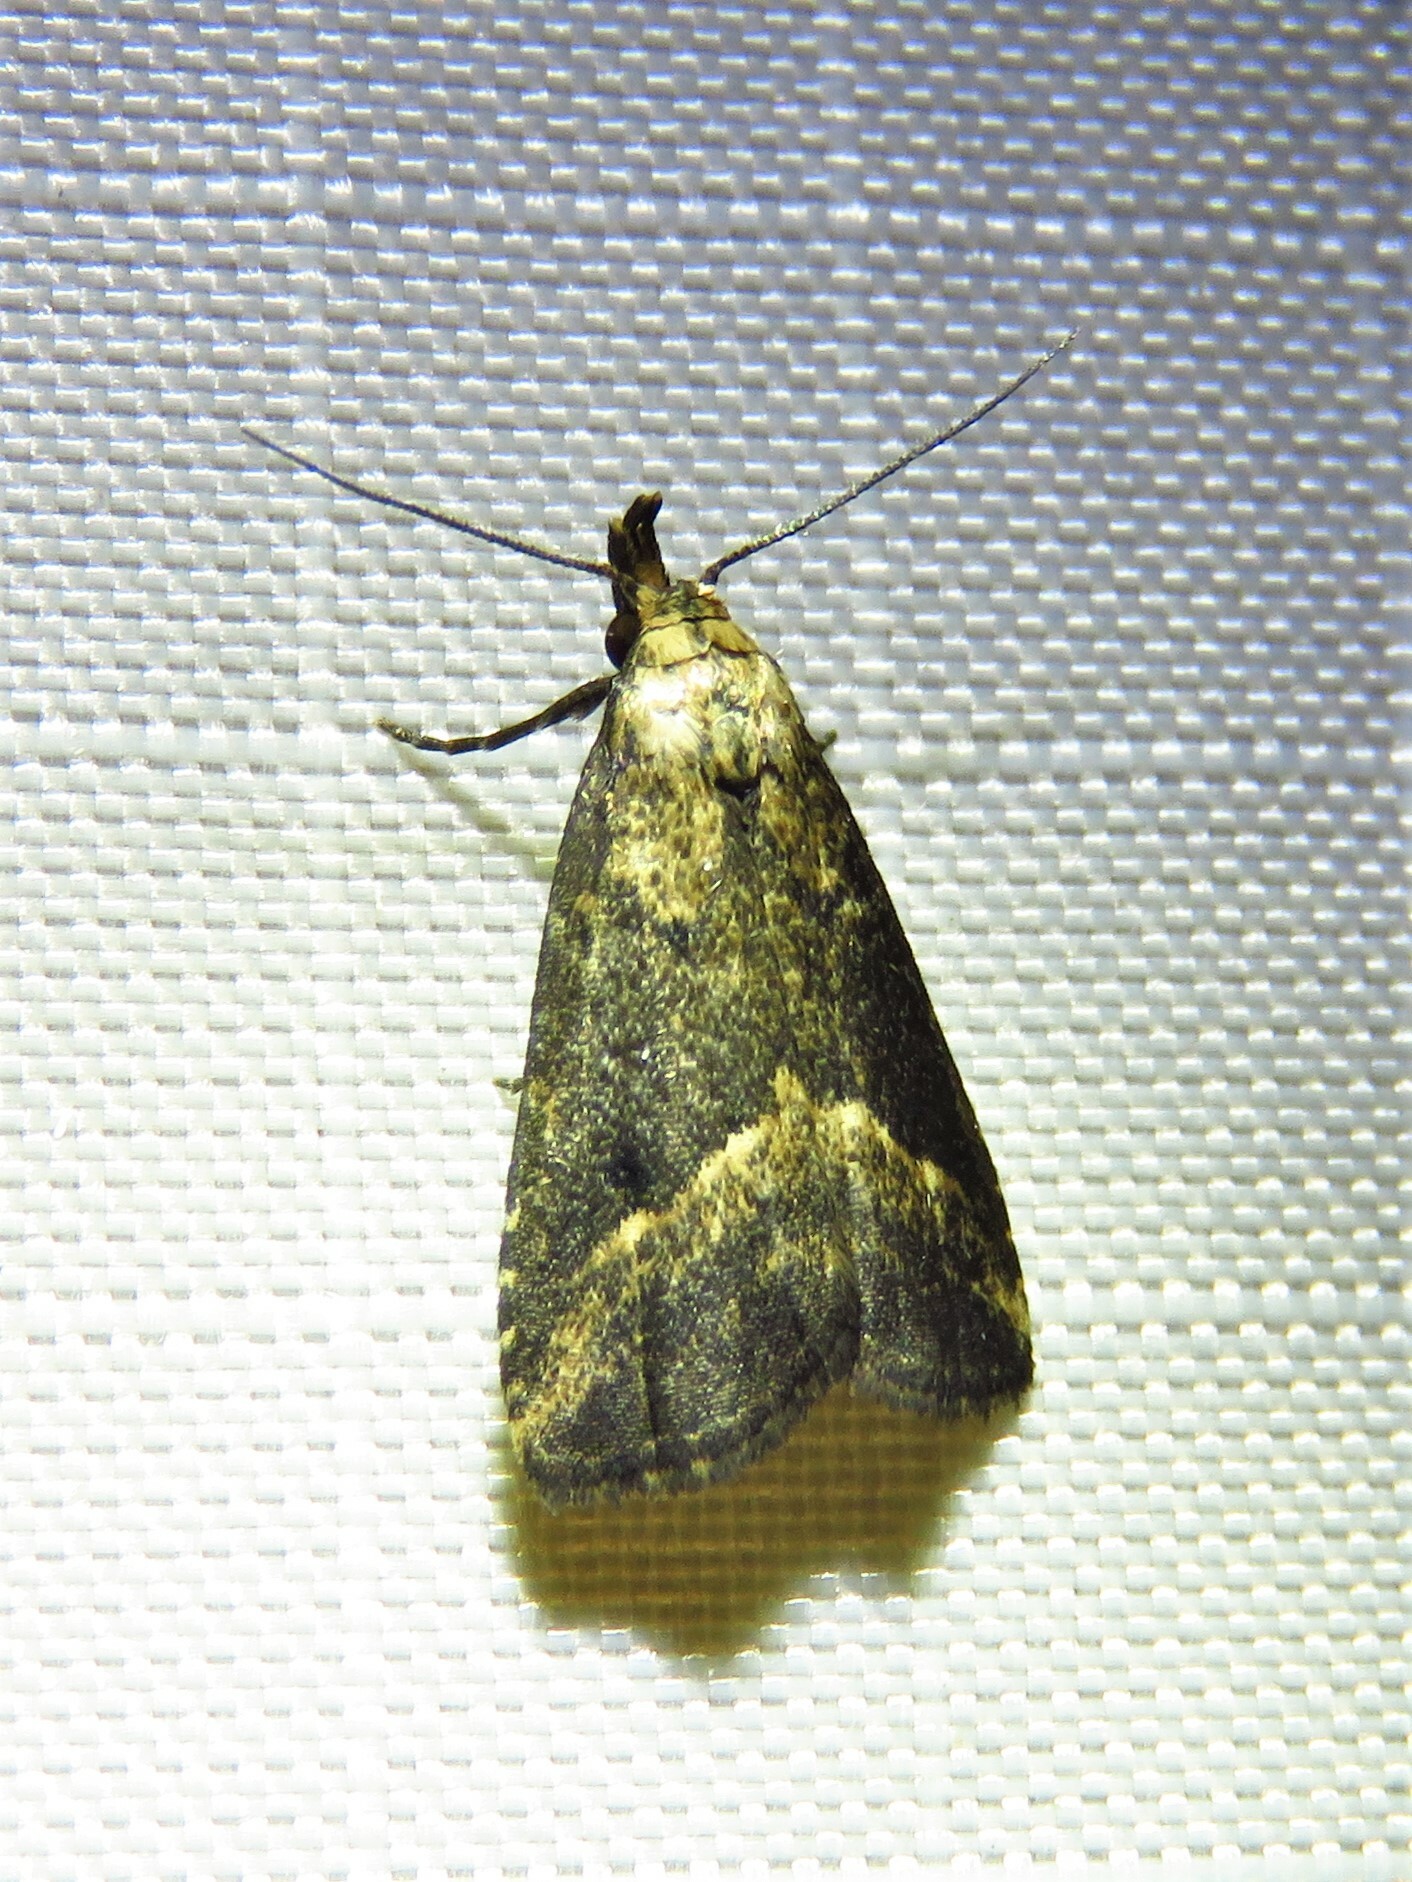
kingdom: Animalia
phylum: Arthropoda
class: Insecta
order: Lepidoptera
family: Erebidae
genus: Schrankia
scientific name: Schrankia
